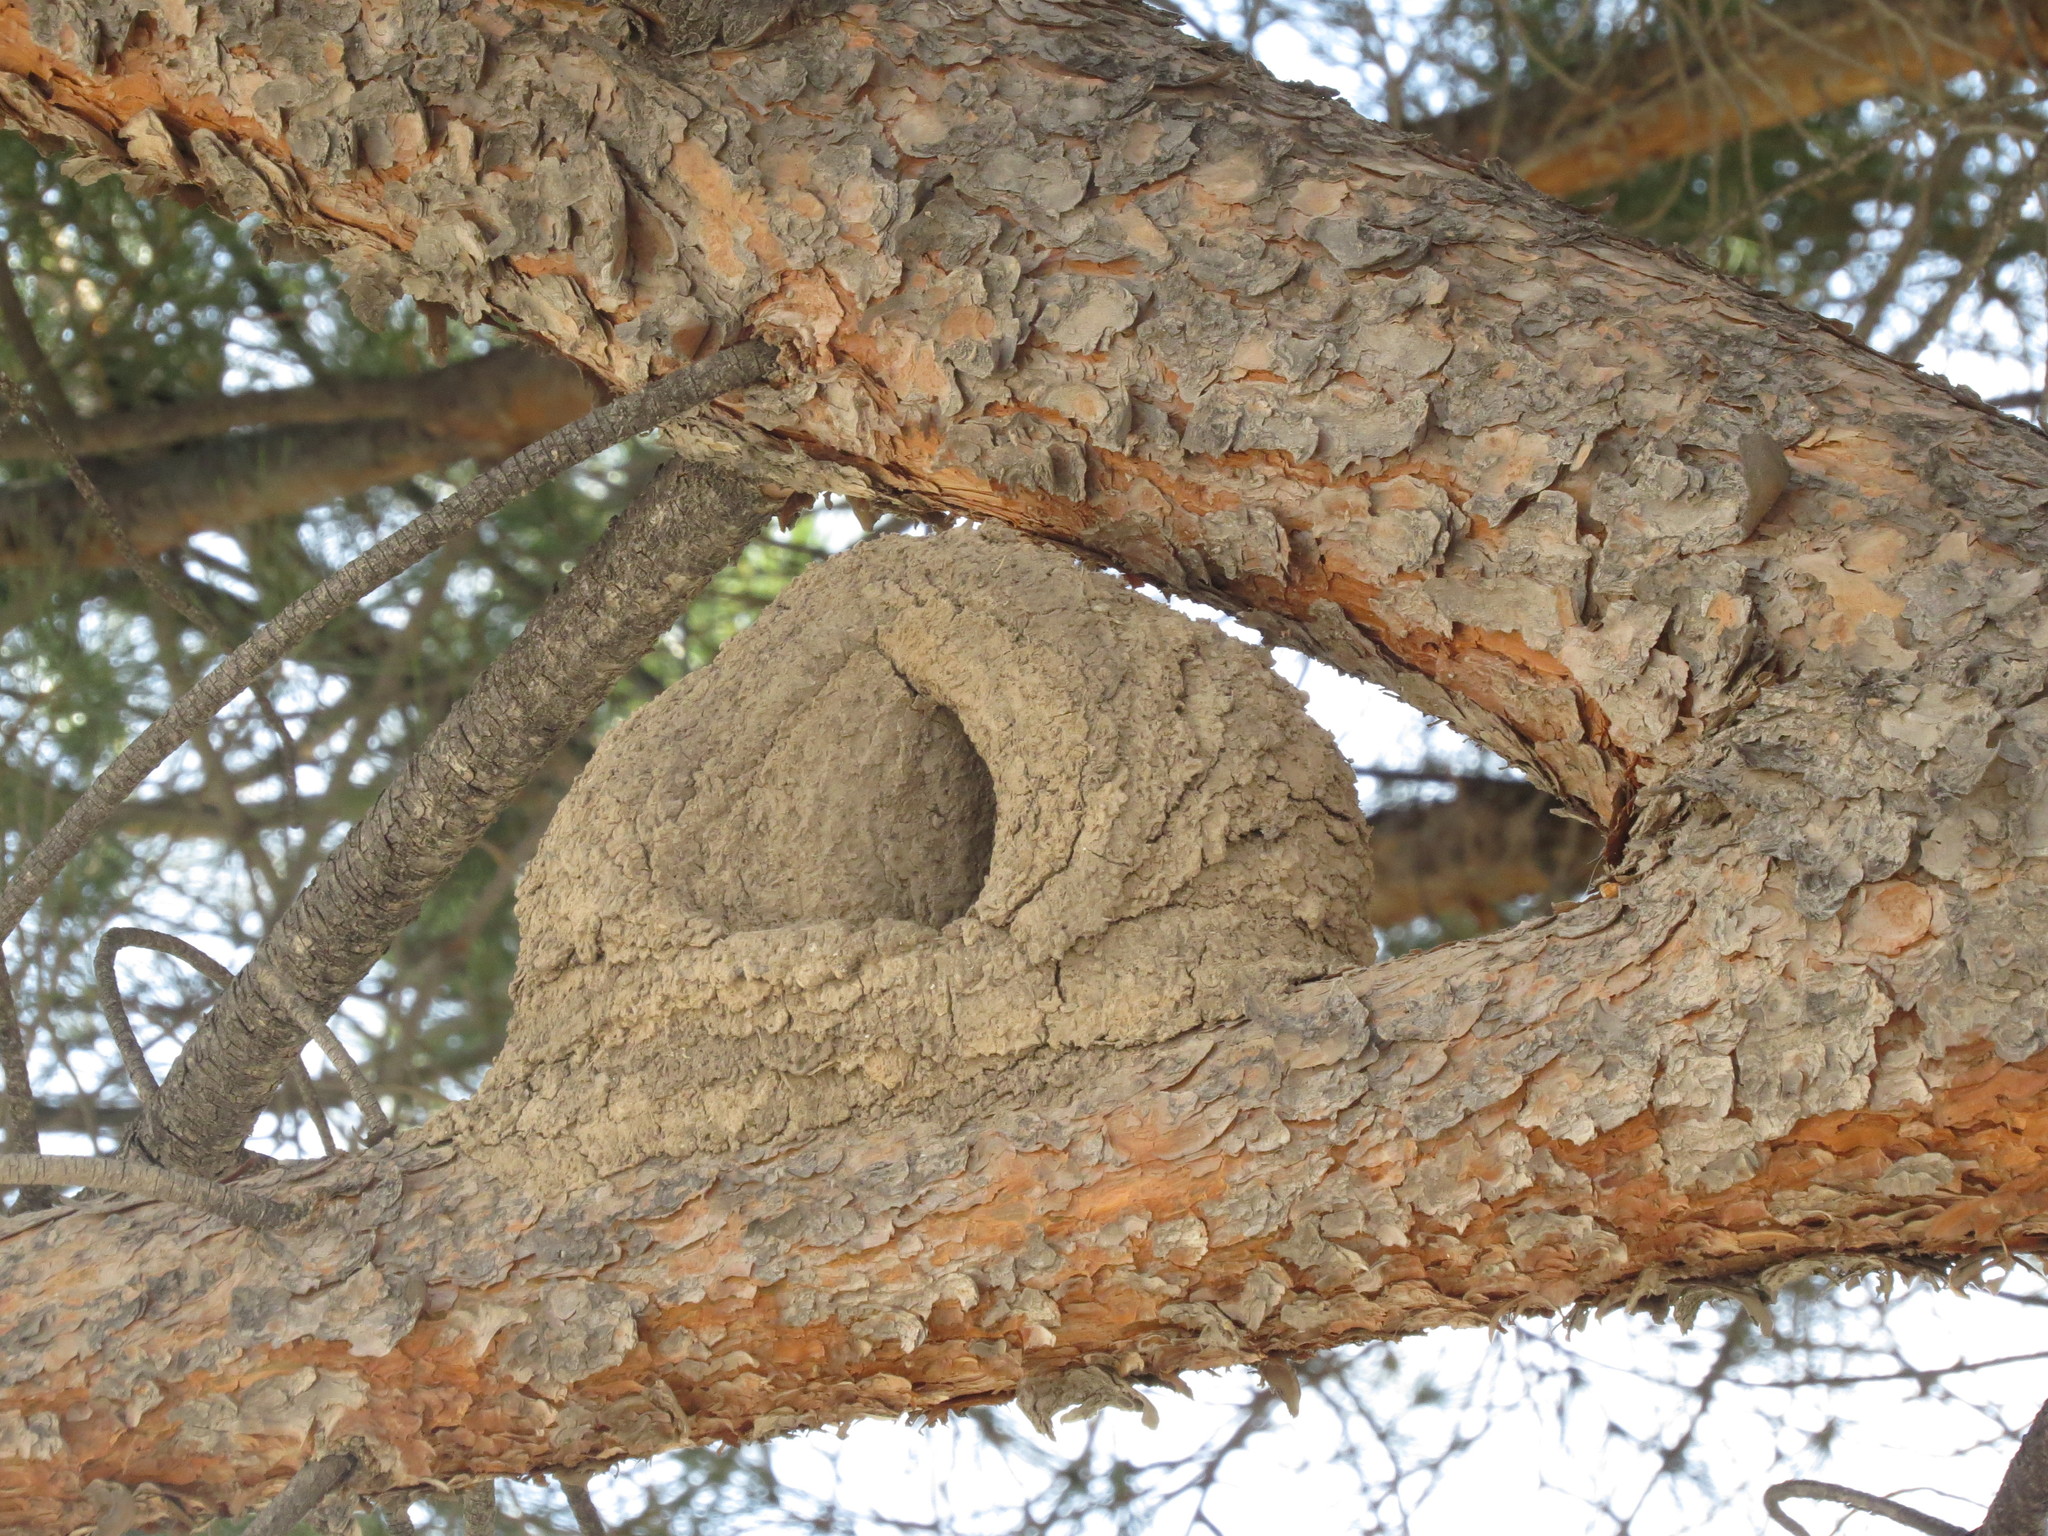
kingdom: Animalia
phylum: Chordata
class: Aves
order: Passeriformes
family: Furnariidae
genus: Furnarius
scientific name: Furnarius rufus
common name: Rufous hornero
